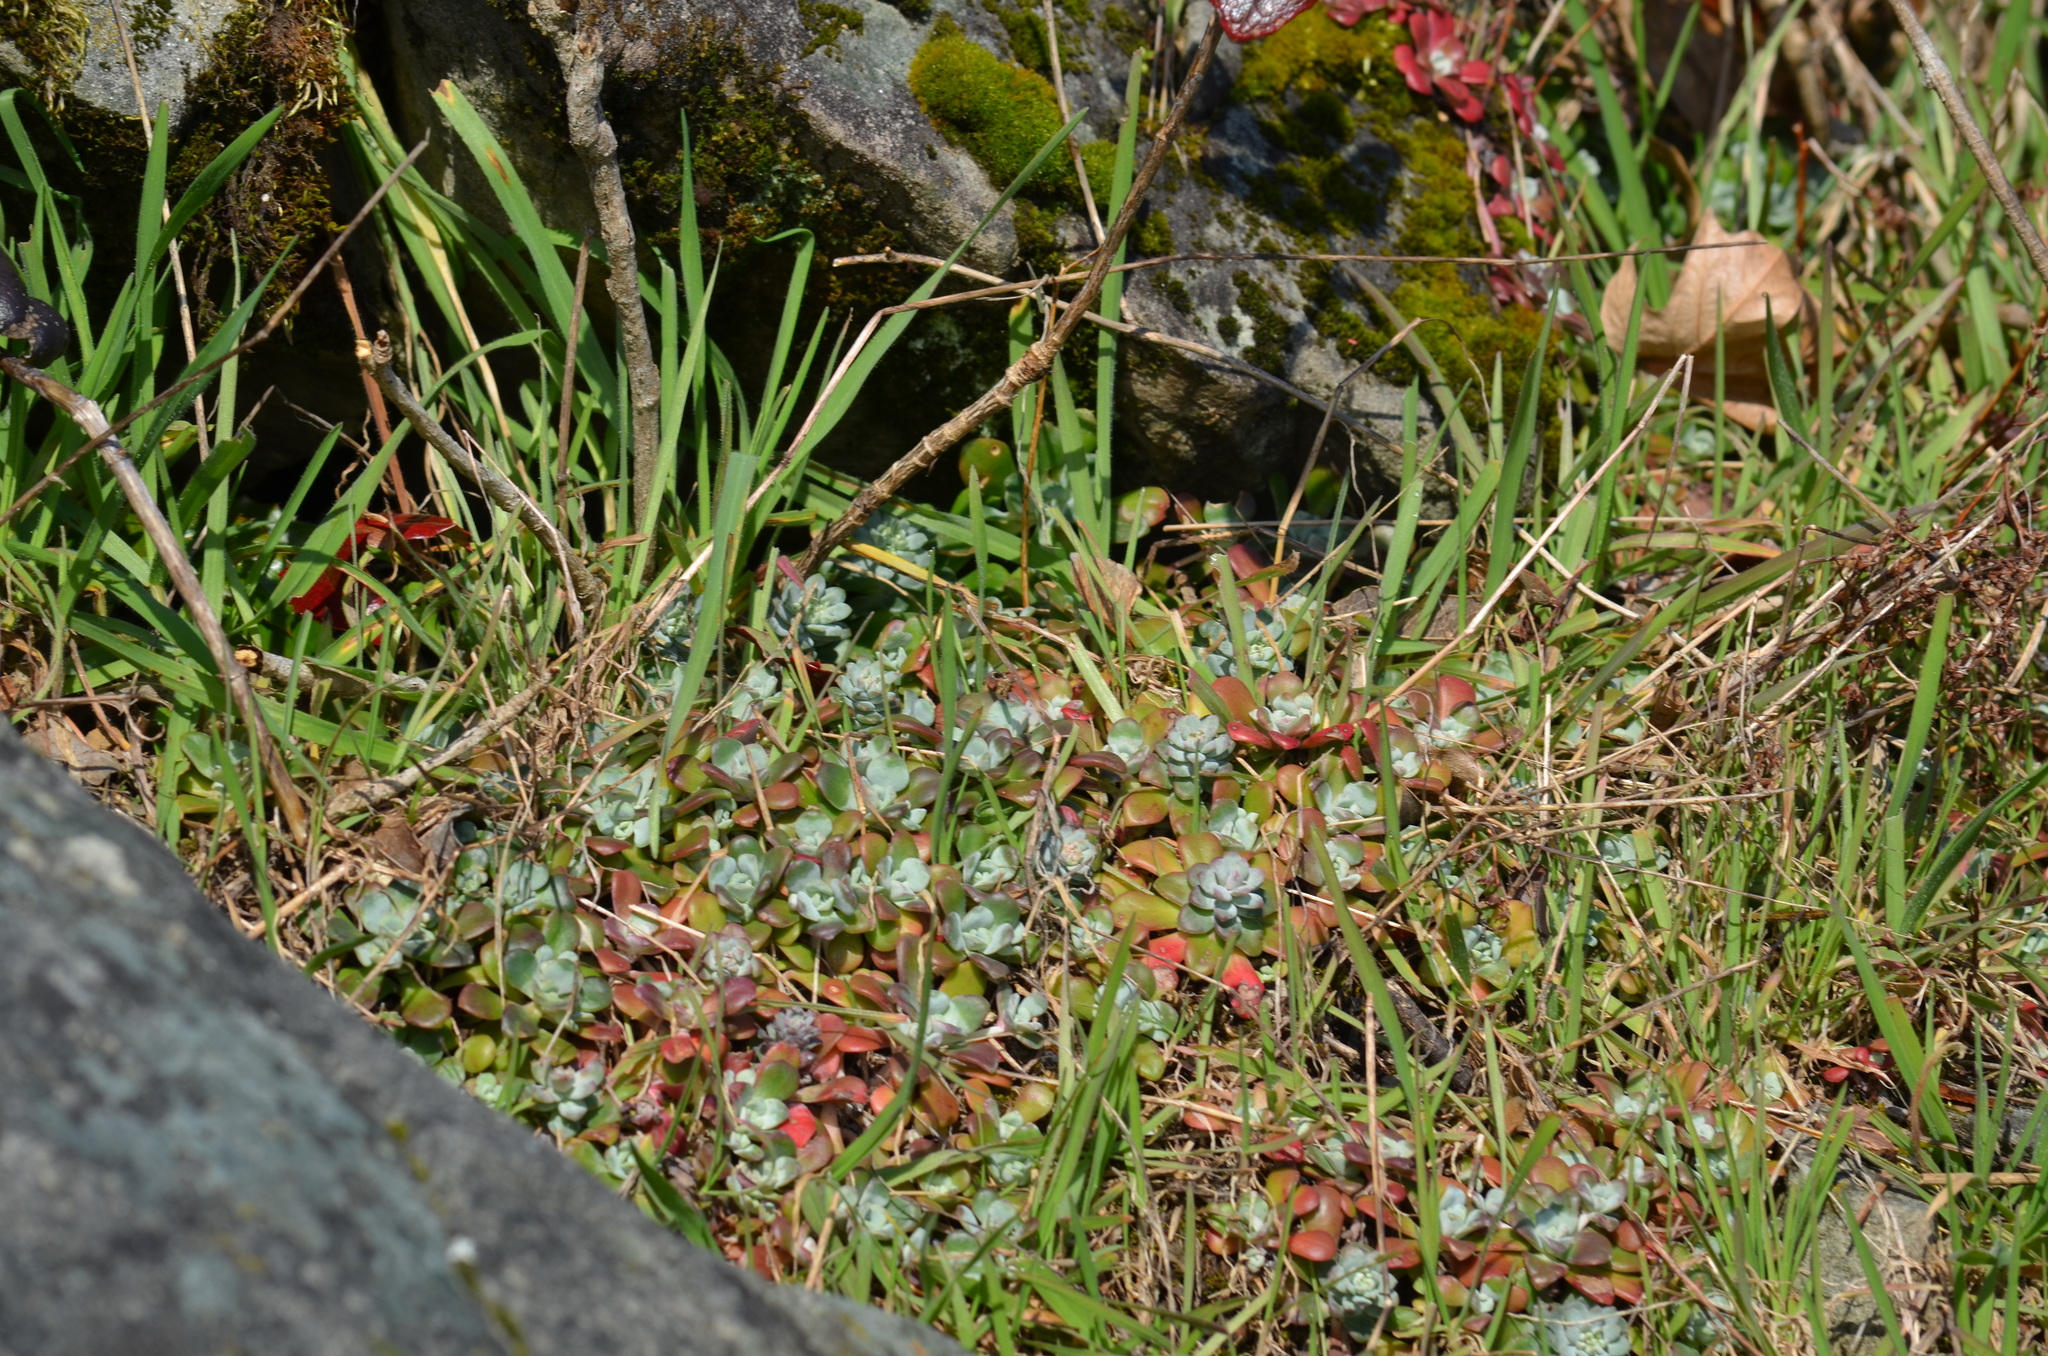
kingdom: Plantae
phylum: Tracheophyta
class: Magnoliopsida
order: Saxifragales
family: Crassulaceae
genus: Sedum
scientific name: Sedum spathulifolium
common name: Colorado stonecrop
